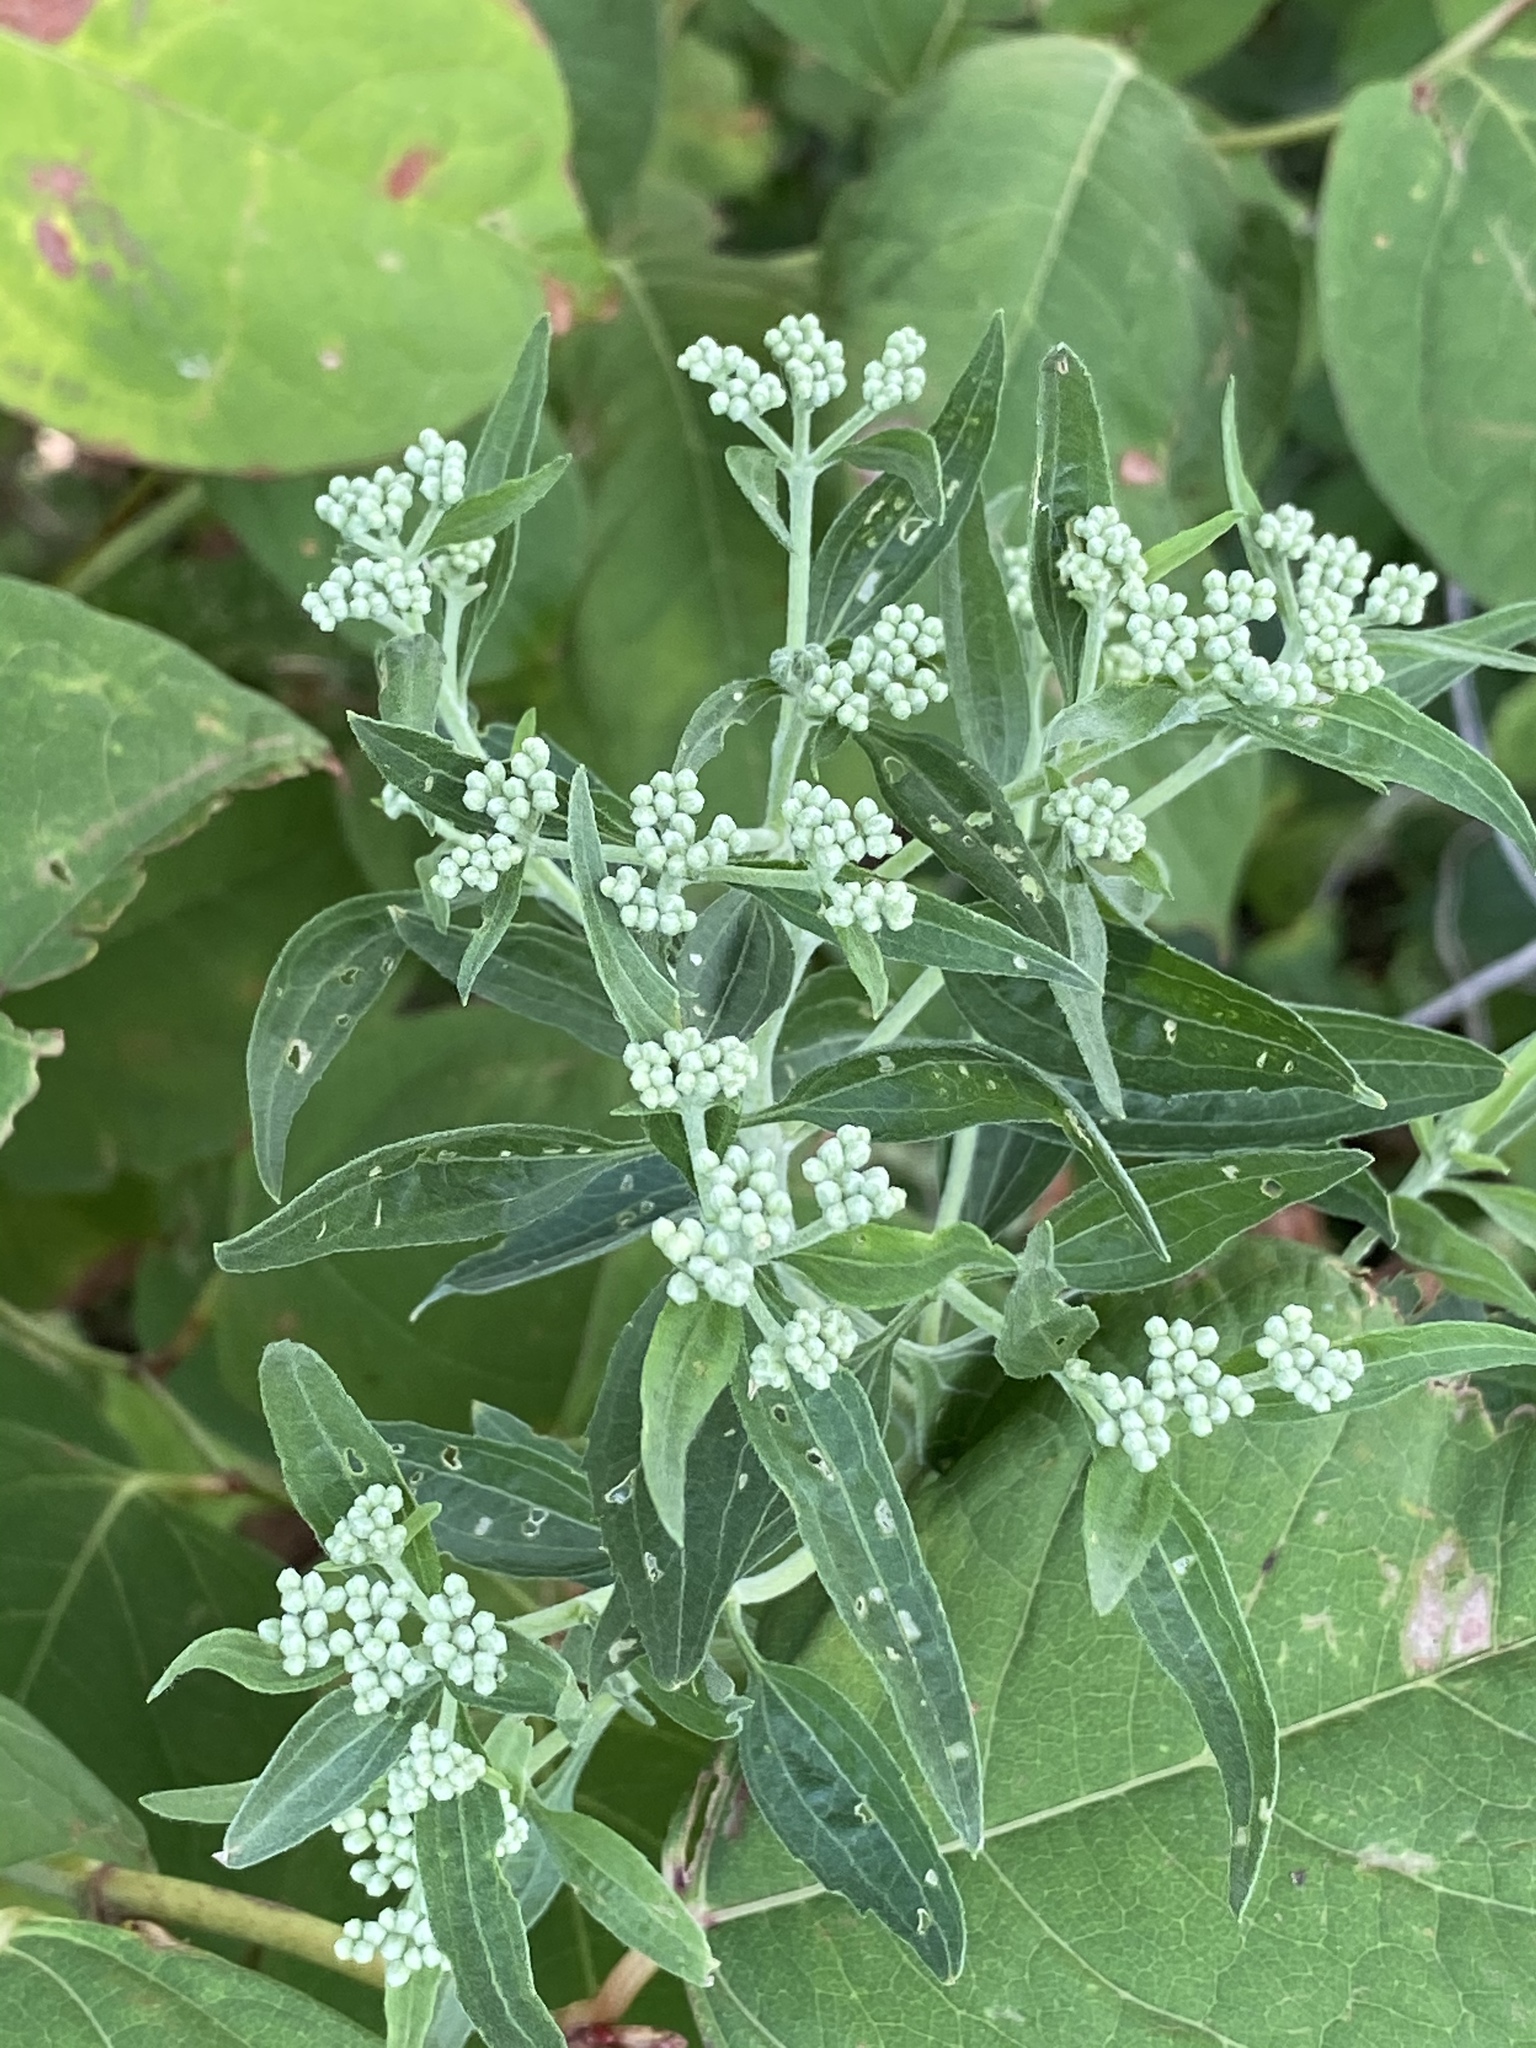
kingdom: Plantae
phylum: Tracheophyta
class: Magnoliopsida
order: Asterales
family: Asteraceae
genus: Eupatorium
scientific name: Eupatorium serotinum
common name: Late boneset
